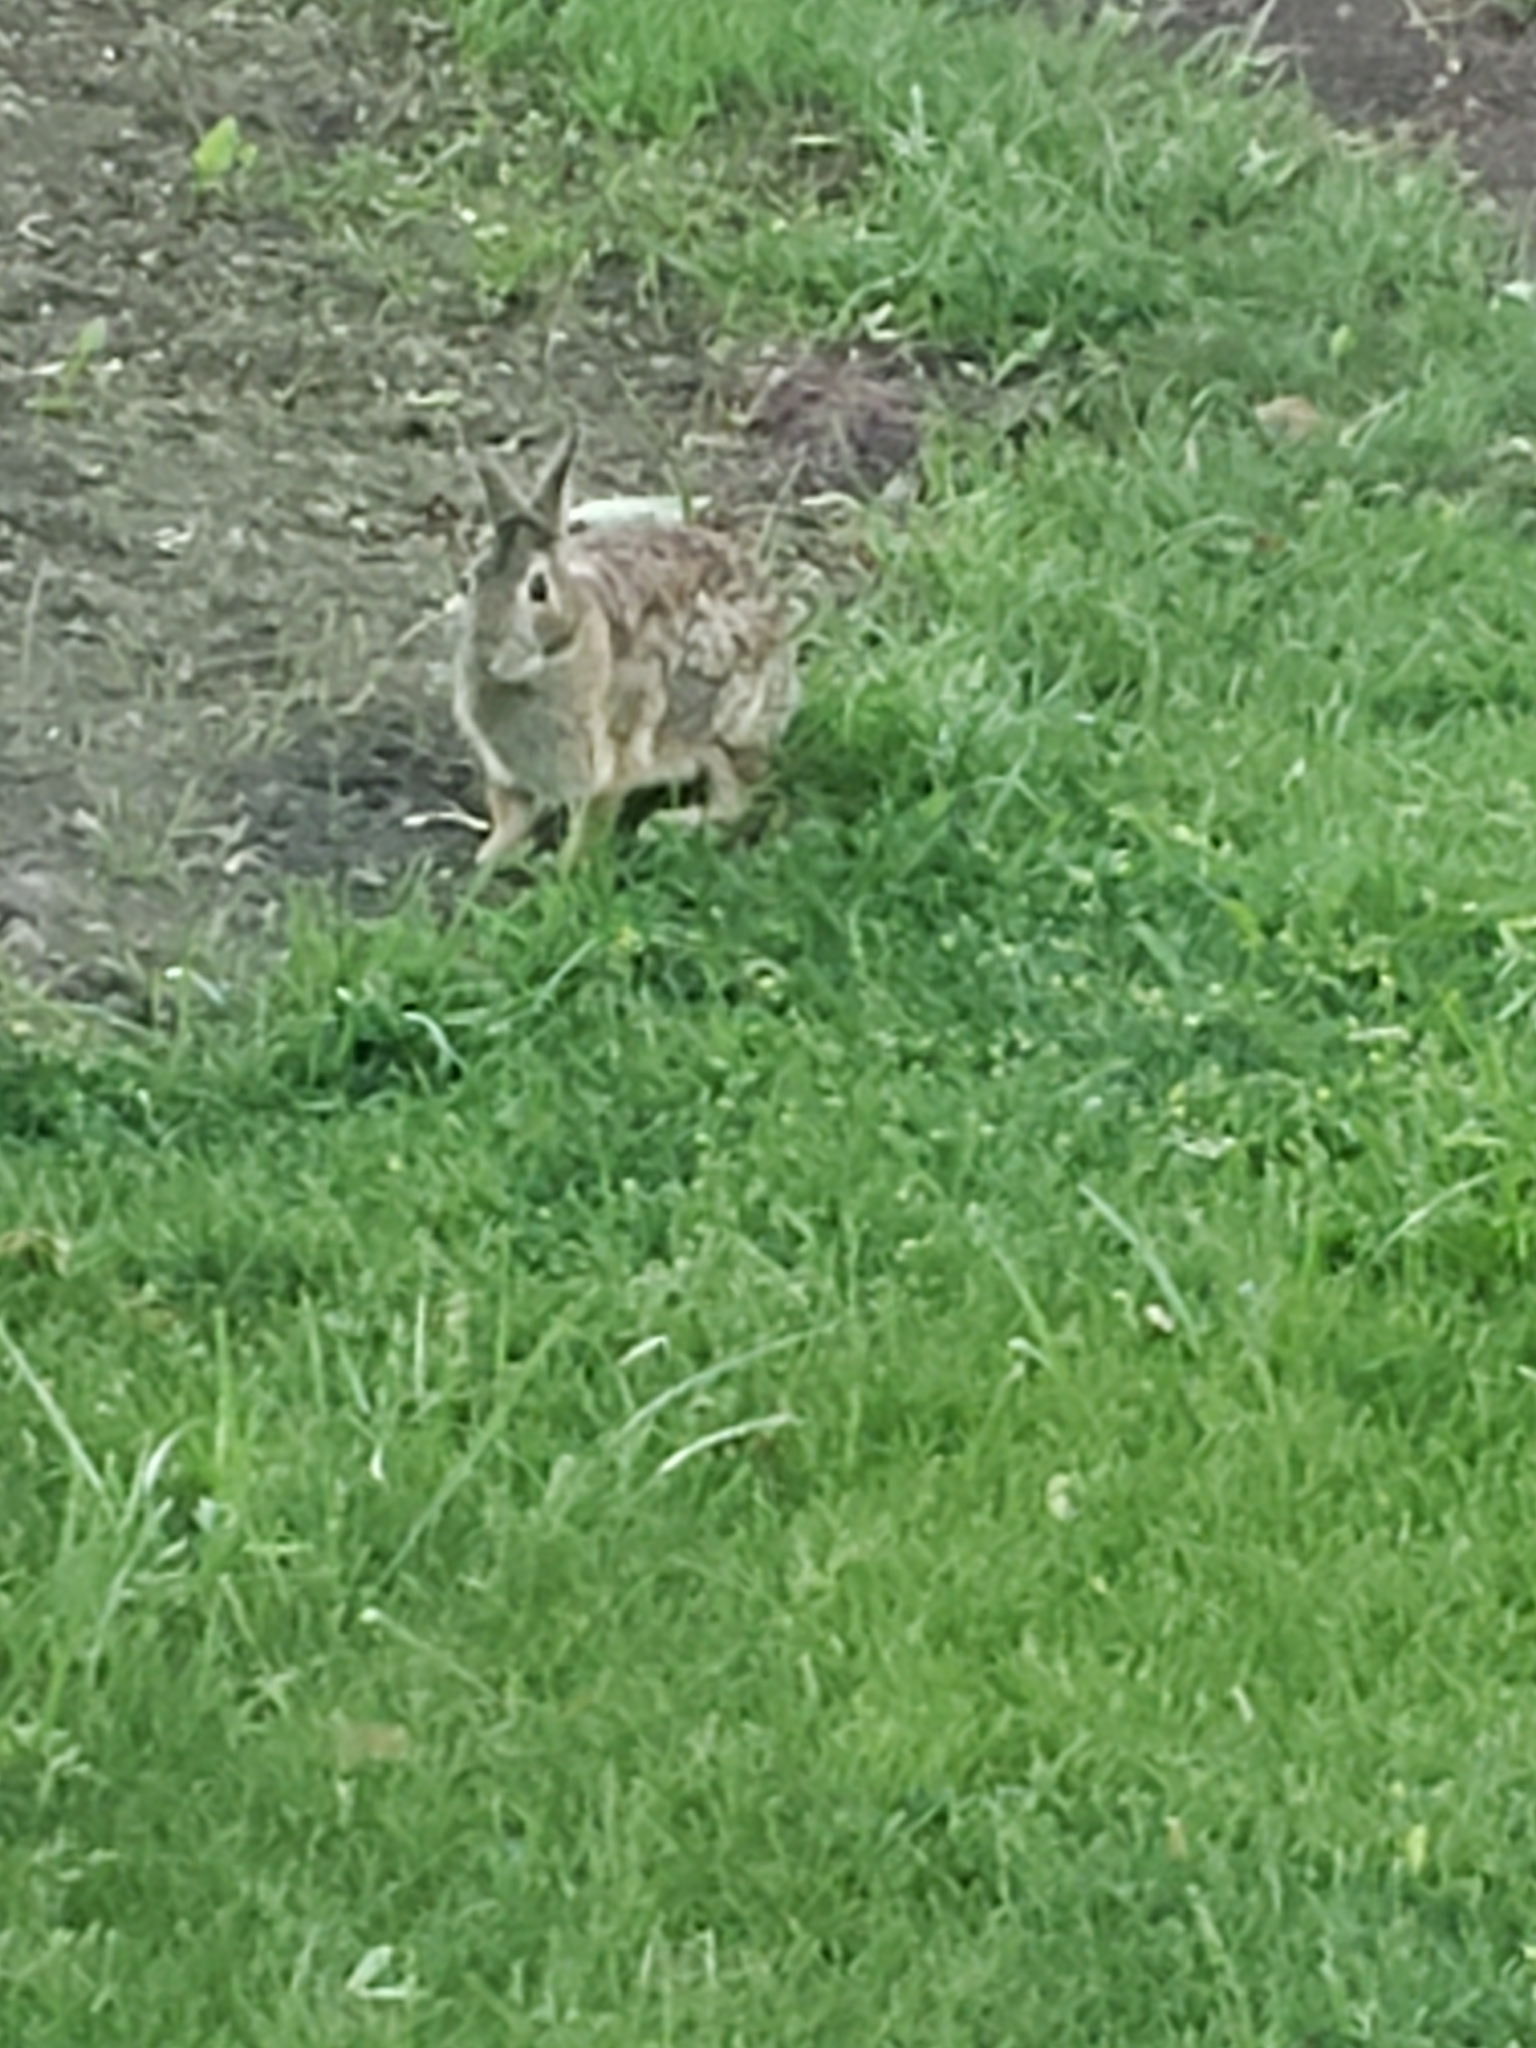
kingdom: Animalia
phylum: Chordata
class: Mammalia
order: Lagomorpha
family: Leporidae
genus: Sylvilagus
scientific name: Sylvilagus floridanus
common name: Eastern cottontail
